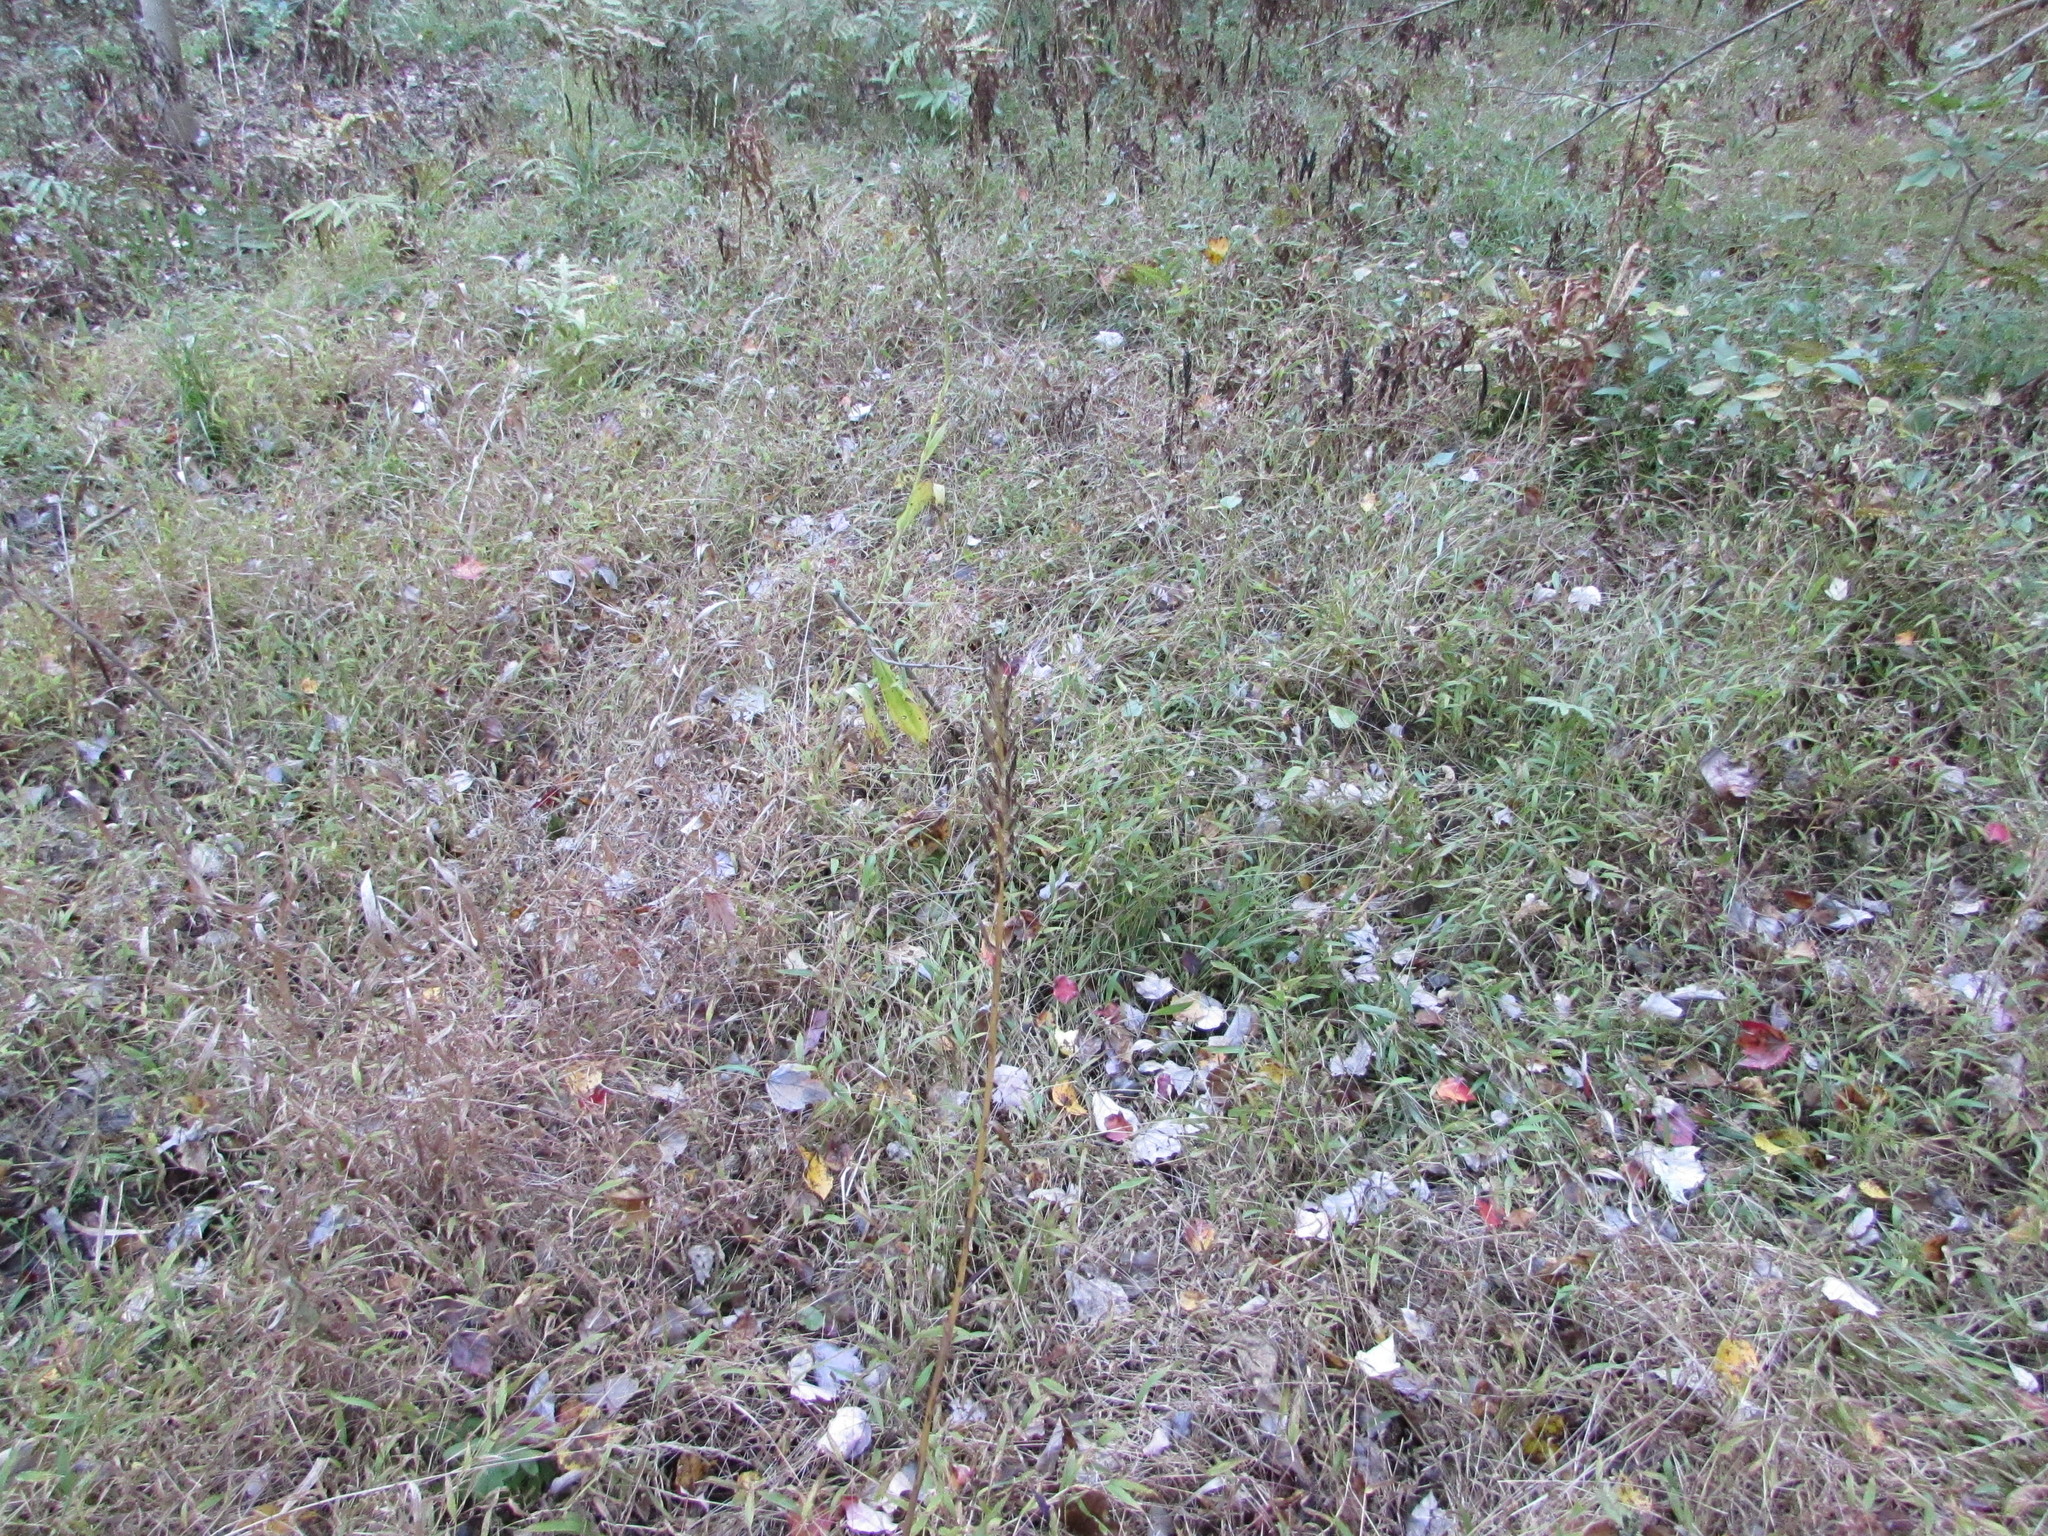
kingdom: Plantae
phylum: Tracheophyta
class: Liliopsida
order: Asparagales
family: Orchidaceae
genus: Platanthera
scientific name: Platanthera peramoena
